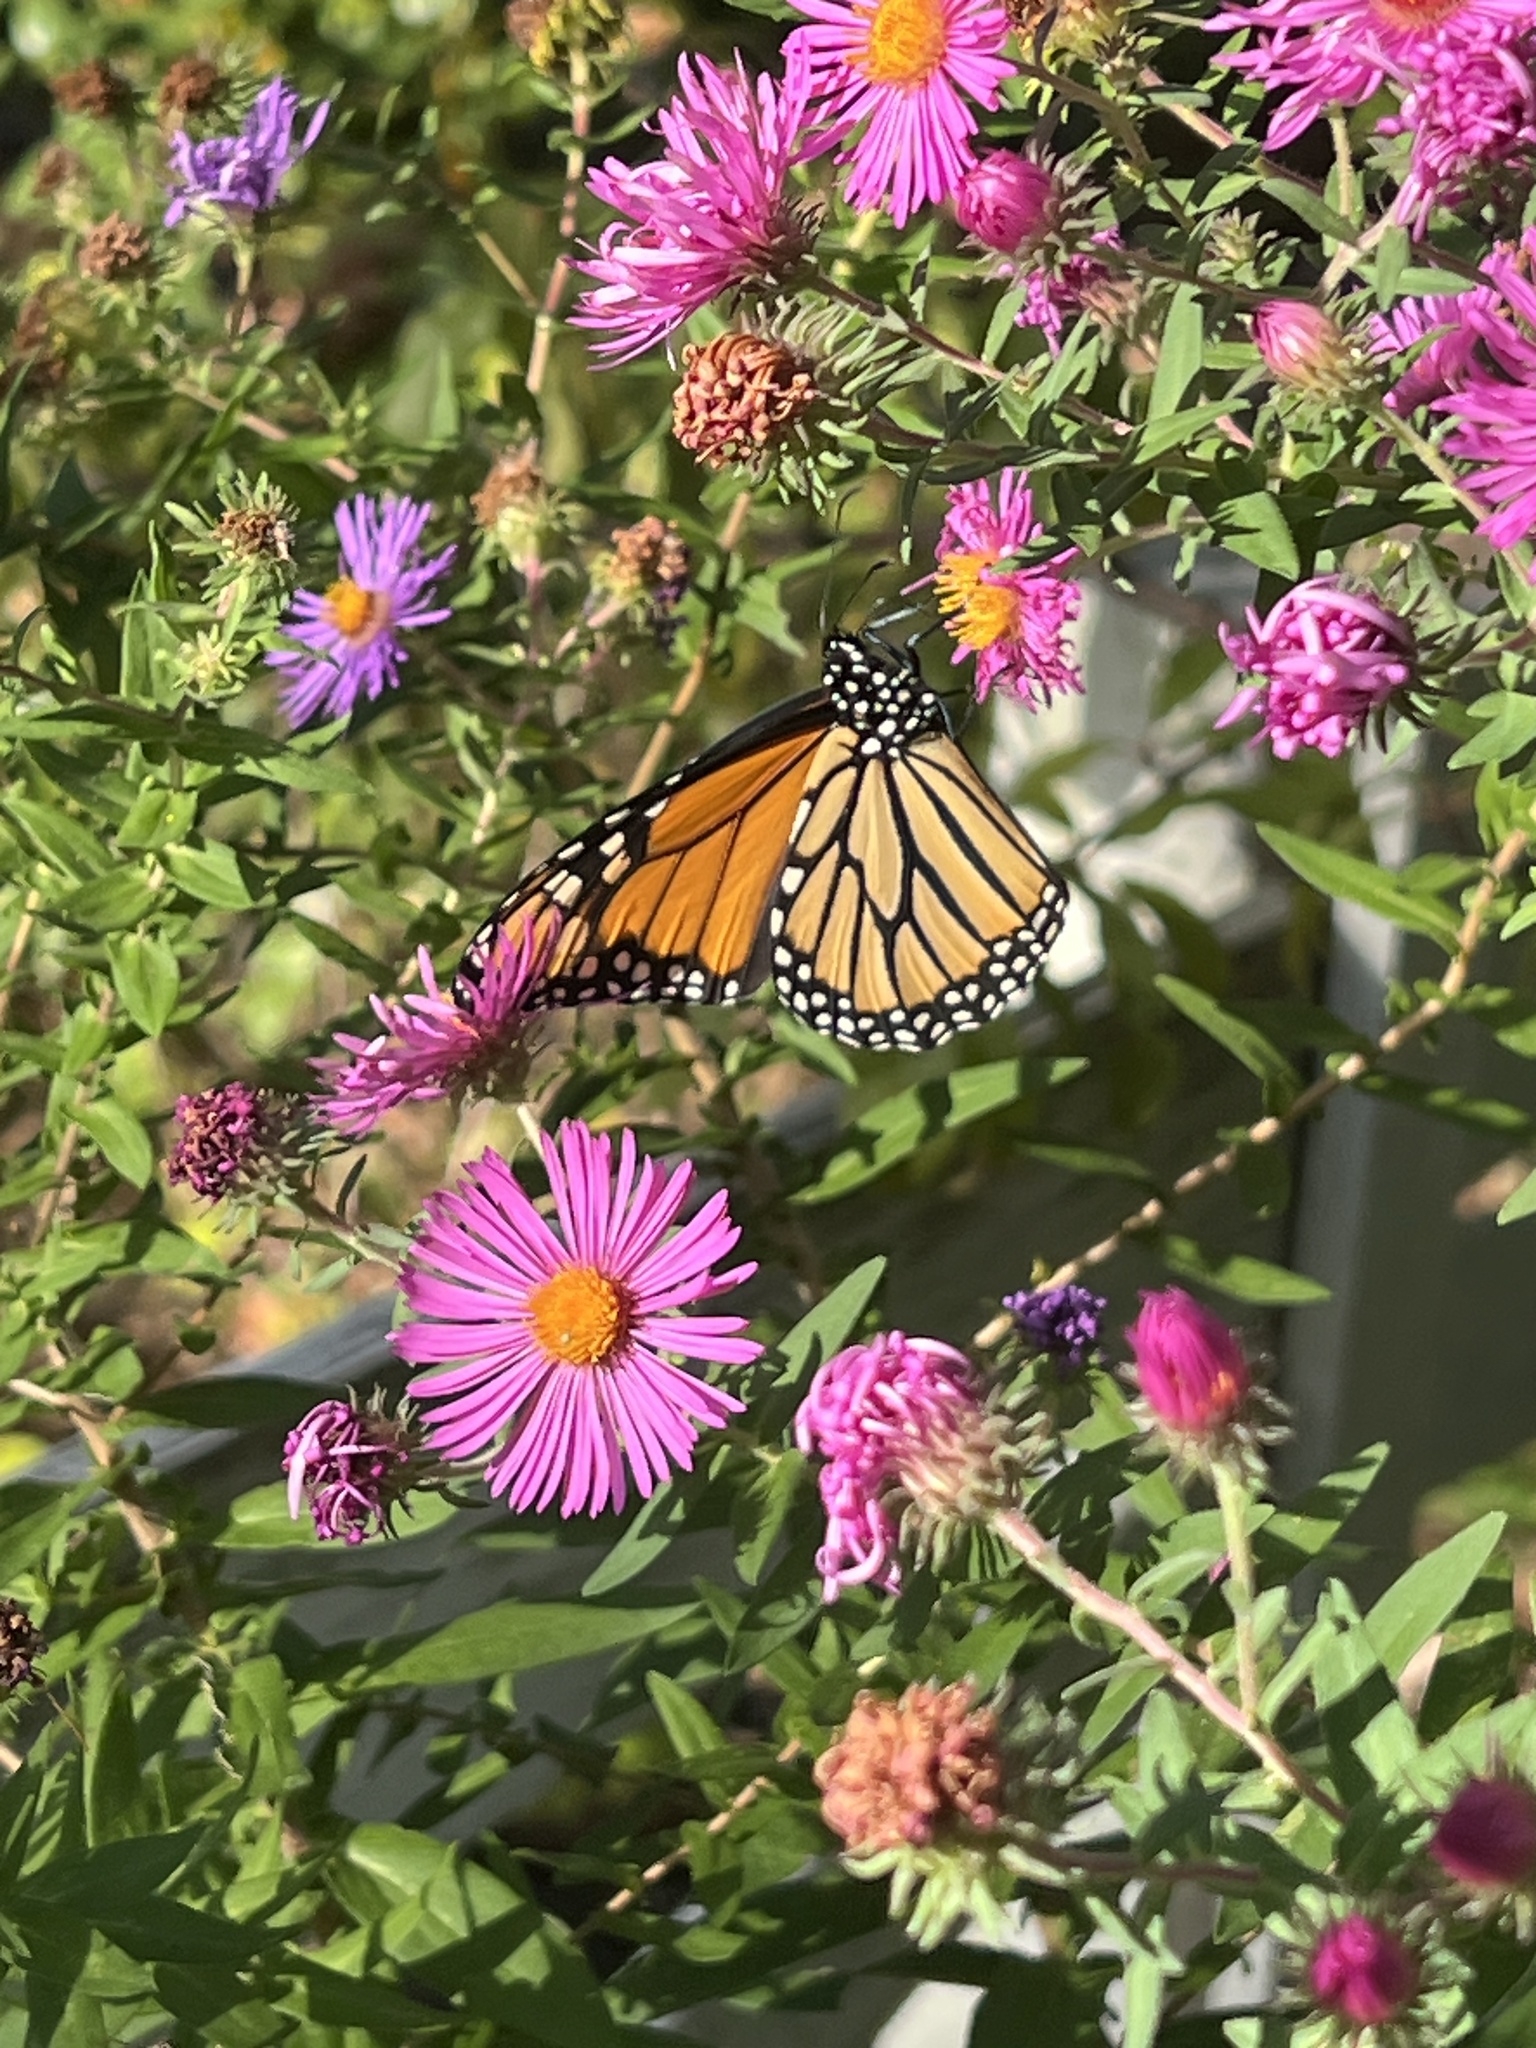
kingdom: Animalia
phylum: Arthropoda
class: Insecta
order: Lepidoptera
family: Nymphalidae
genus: Danaus
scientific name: Danaus plexippus
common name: Monarch
